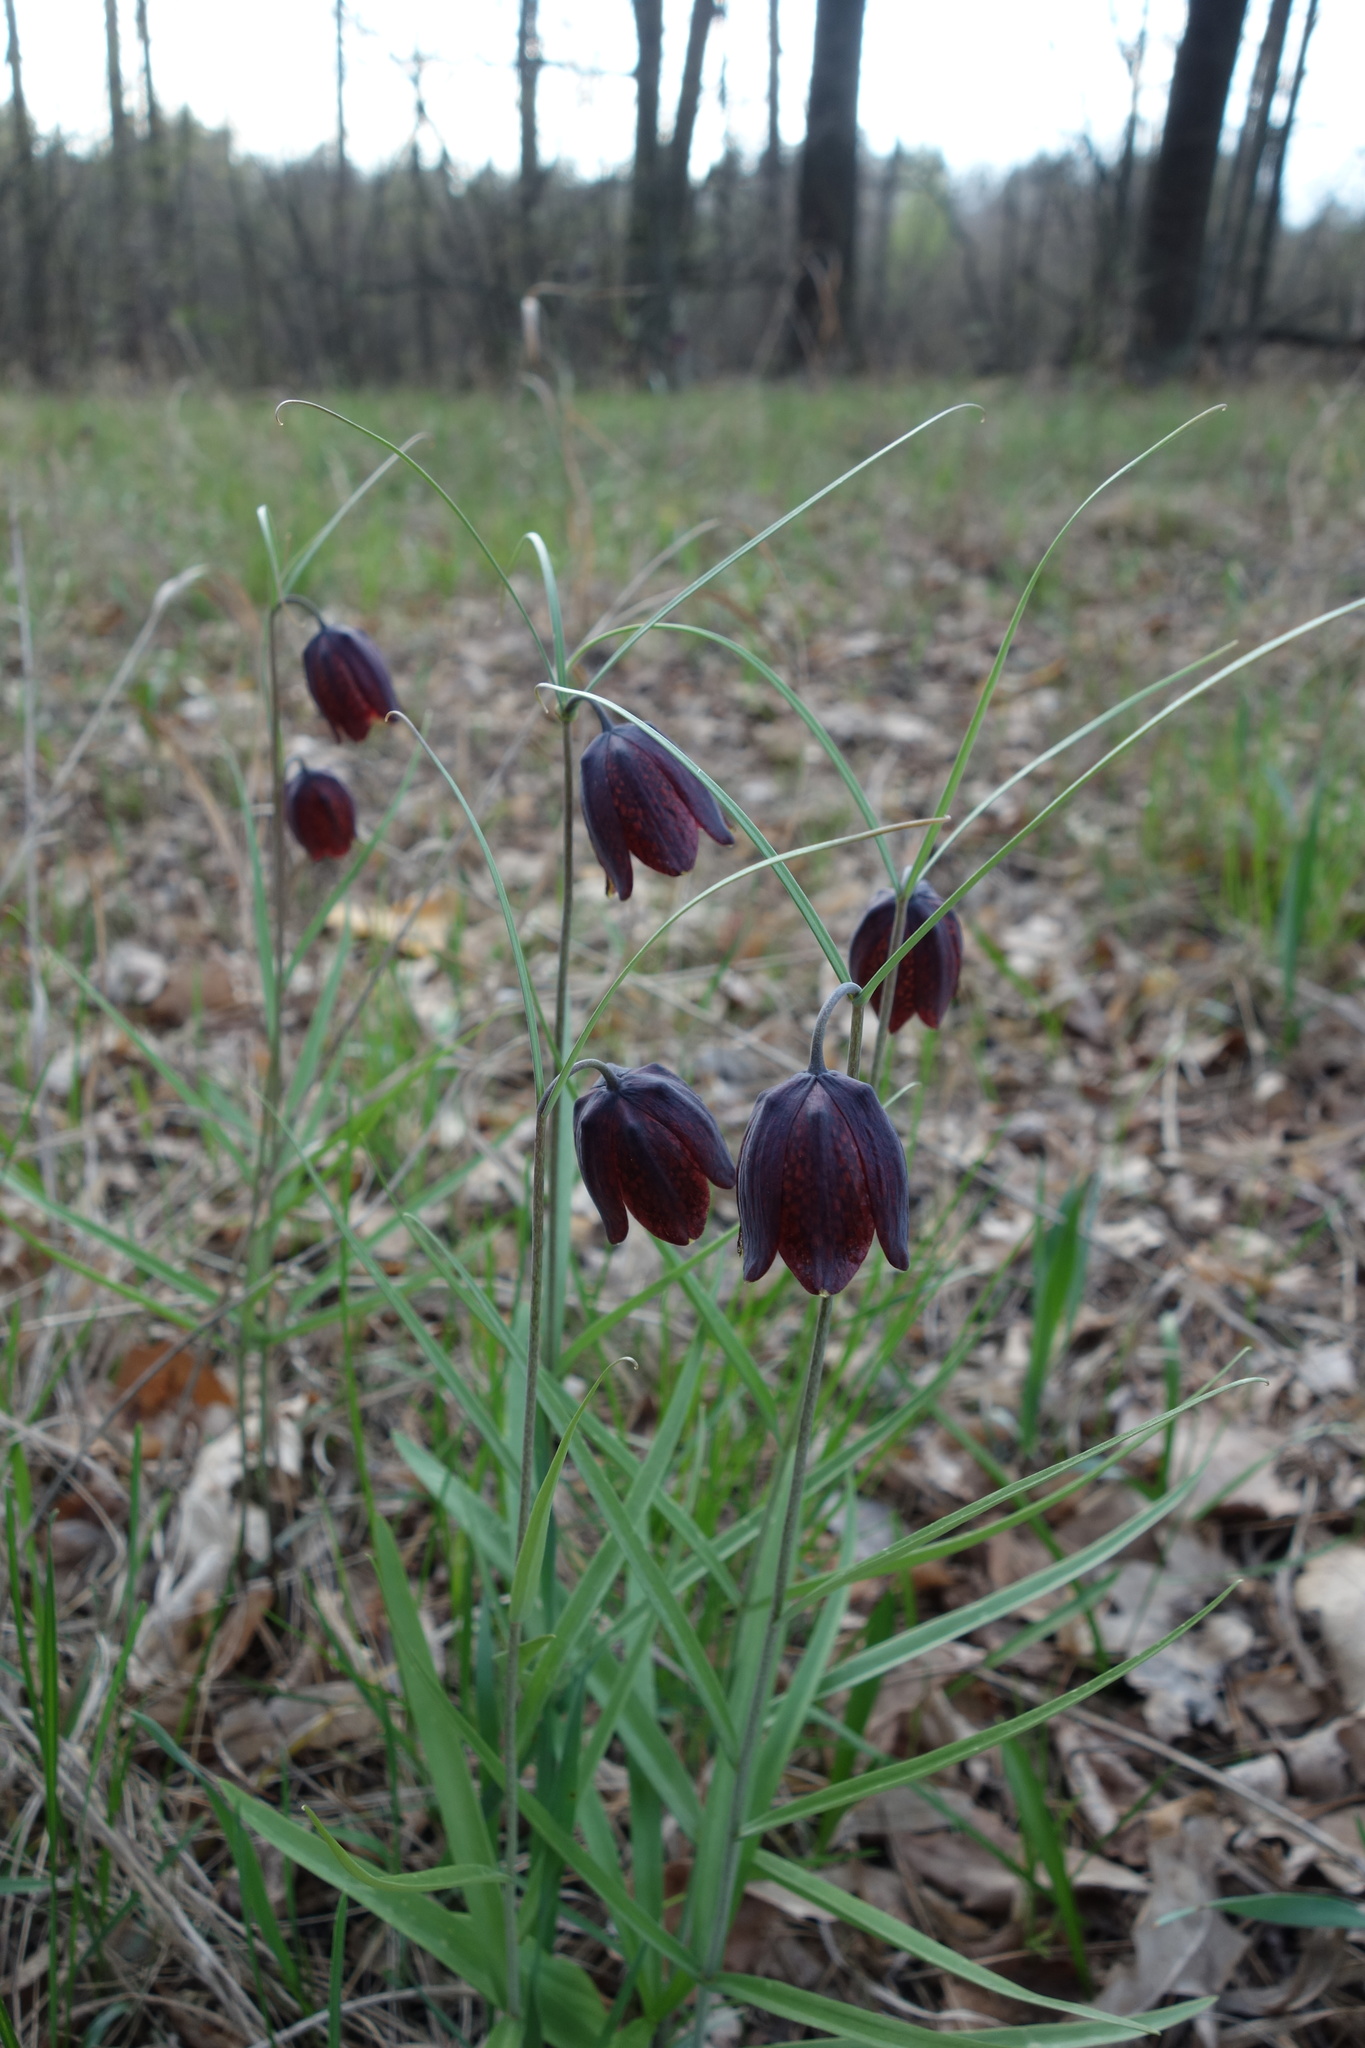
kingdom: Plantae
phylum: Tracheophyta
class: Liliopsida
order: Liliales
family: Liliaceae
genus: Fritillaria
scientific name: Fritillaria ruthenica
